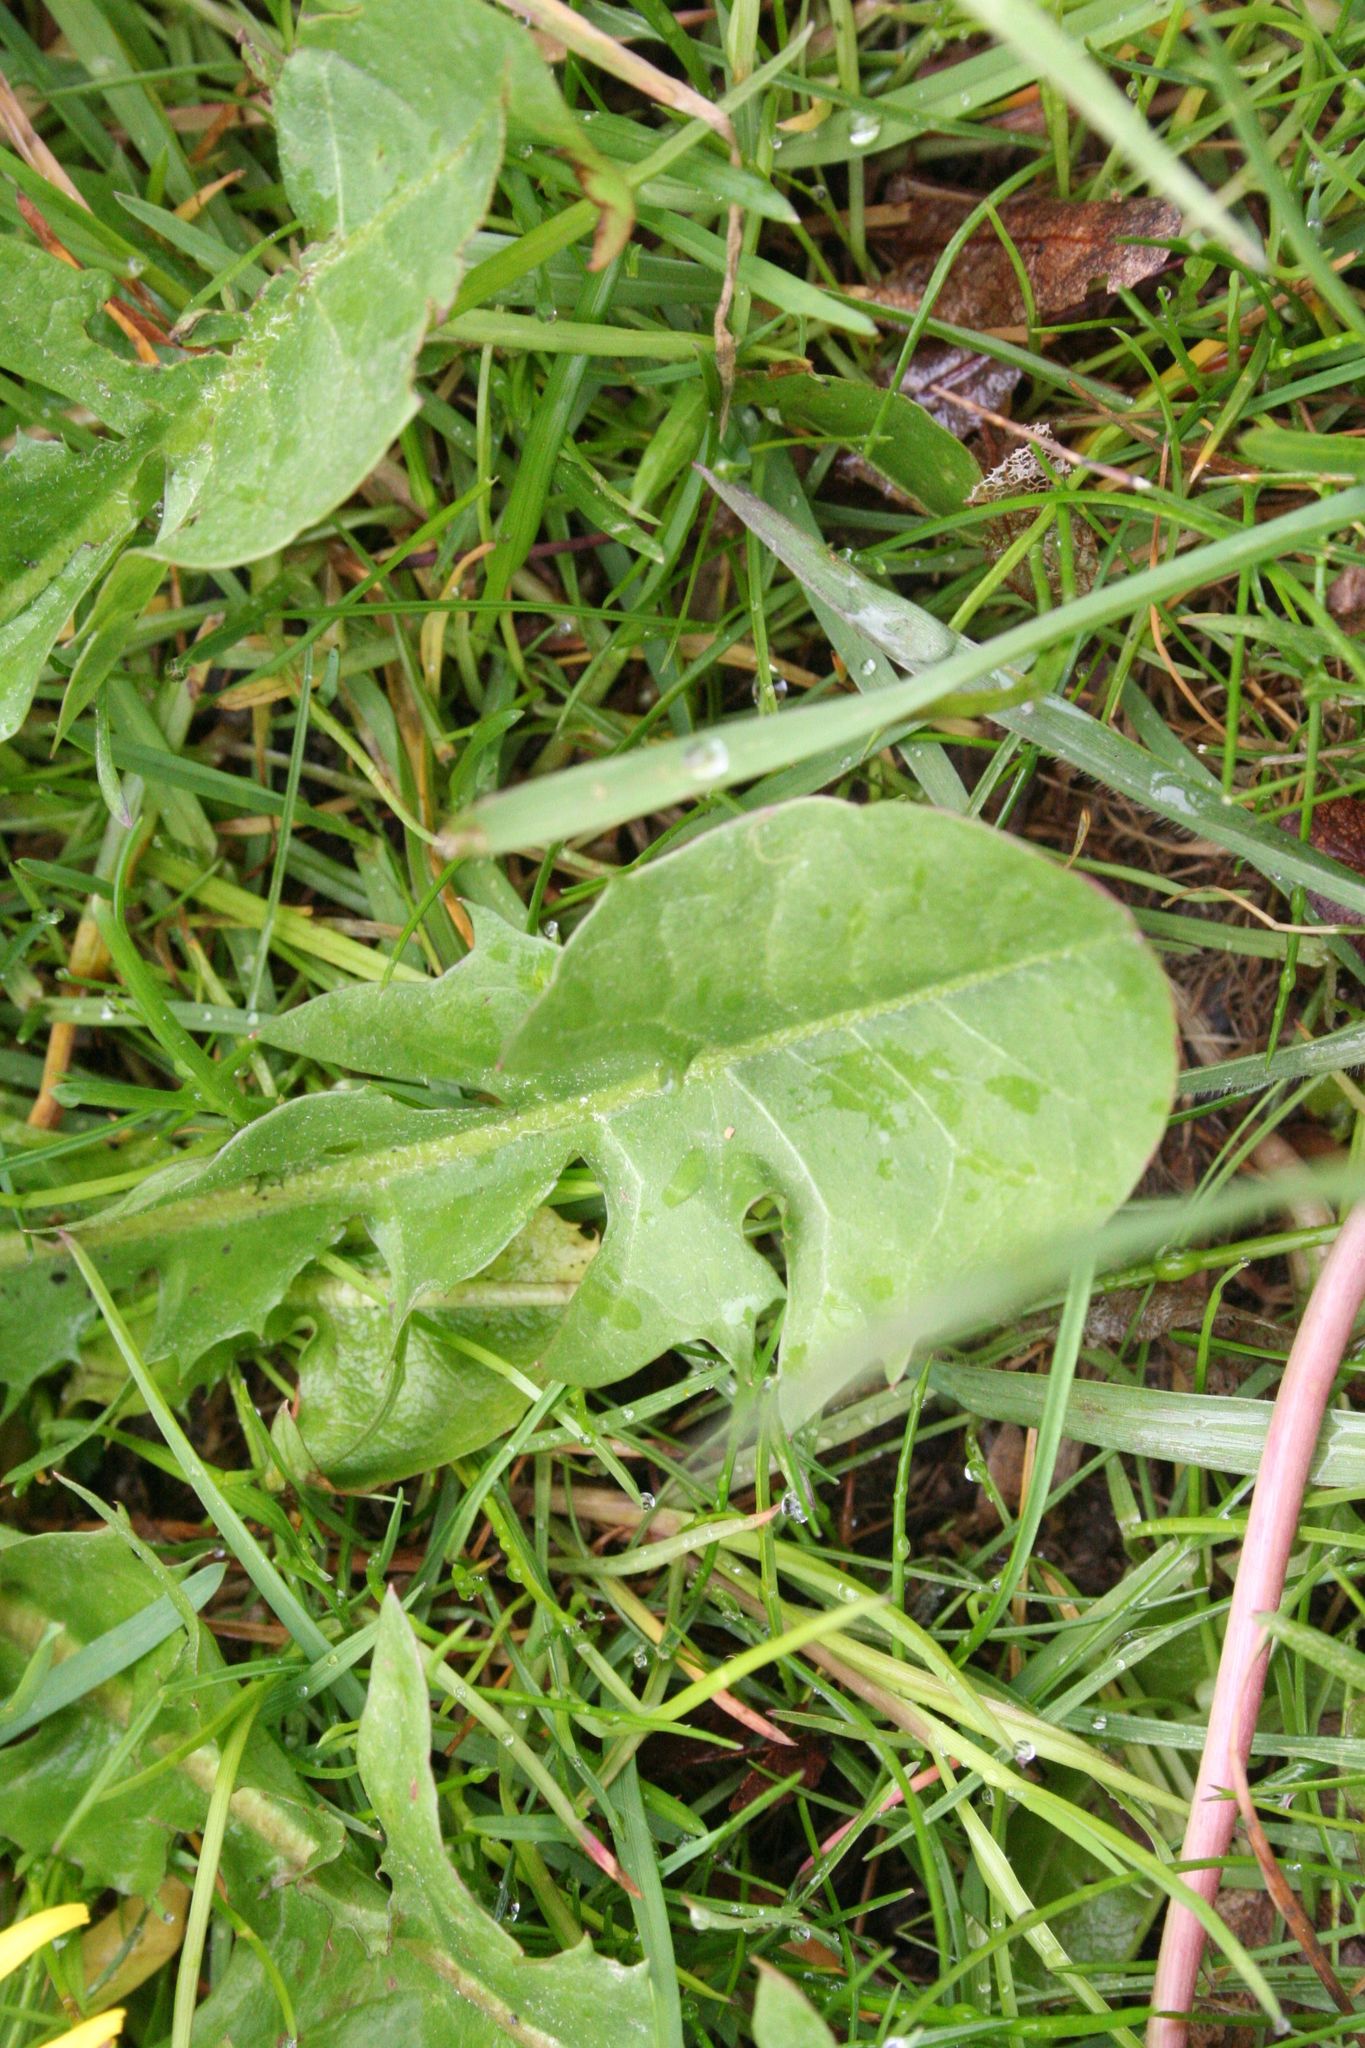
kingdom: Plantae
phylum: Tracheophyta
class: Magnoliopsida
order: Asterales
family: Asteraceae
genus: Taraxacum
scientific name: Taraxacum officinale
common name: Common dandelion
